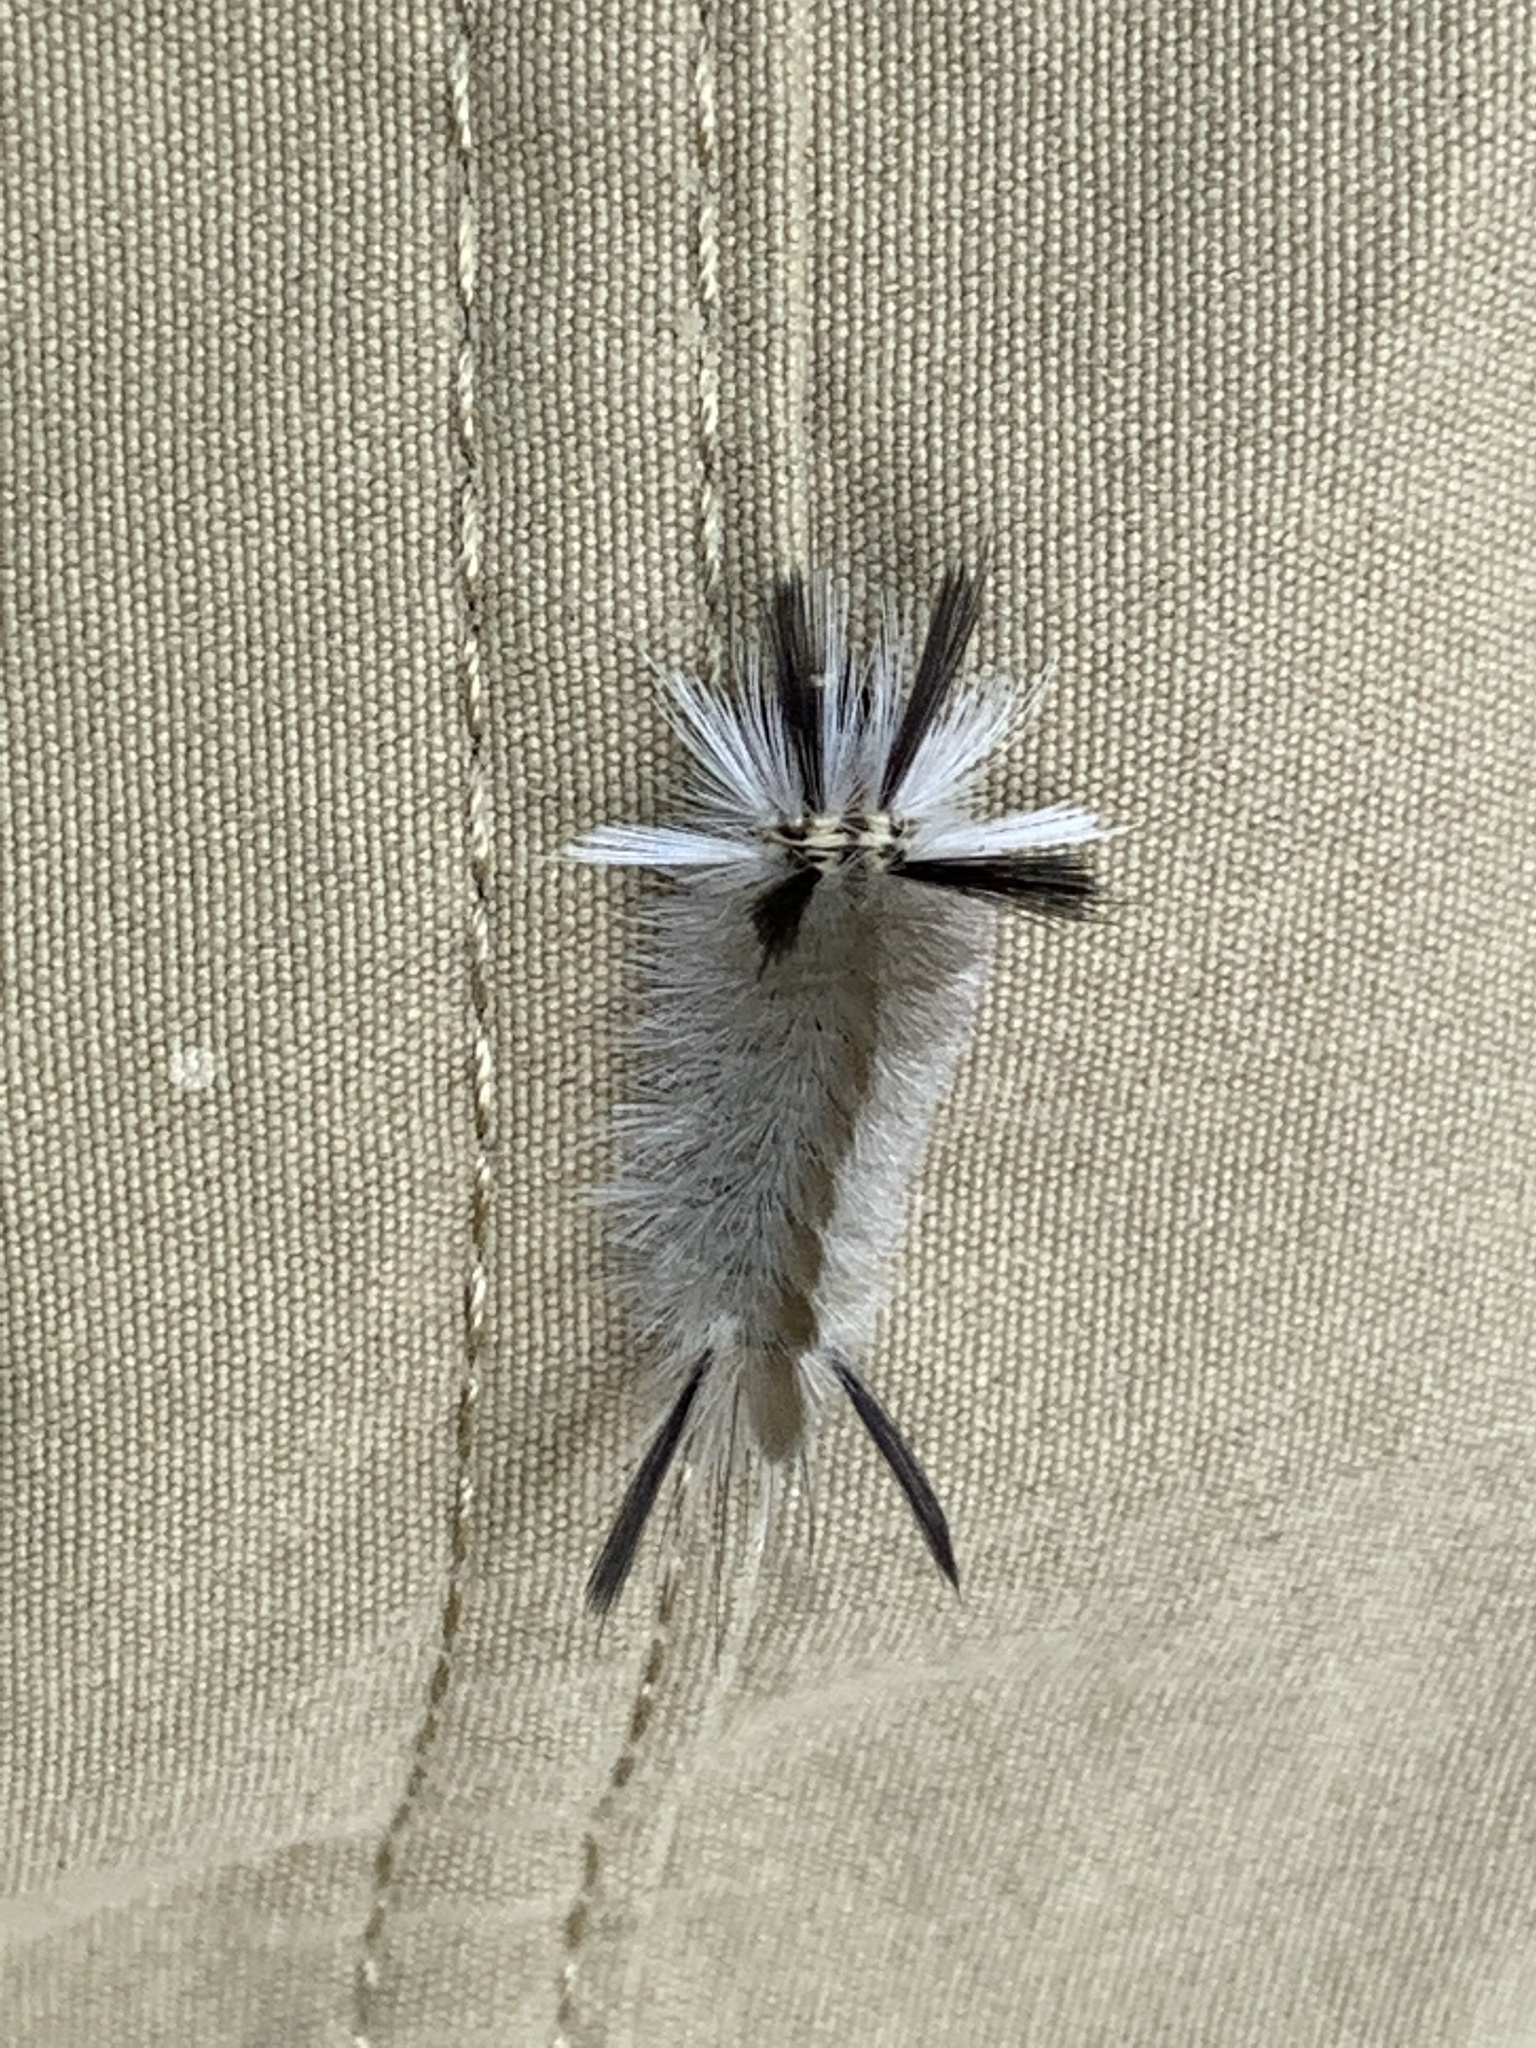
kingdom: Animalia
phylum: Arthropoda
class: Insecta
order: Lepidoptera
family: Erebidae
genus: Halysidota
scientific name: Halysidota tessellaris
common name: Banded tussock moth
